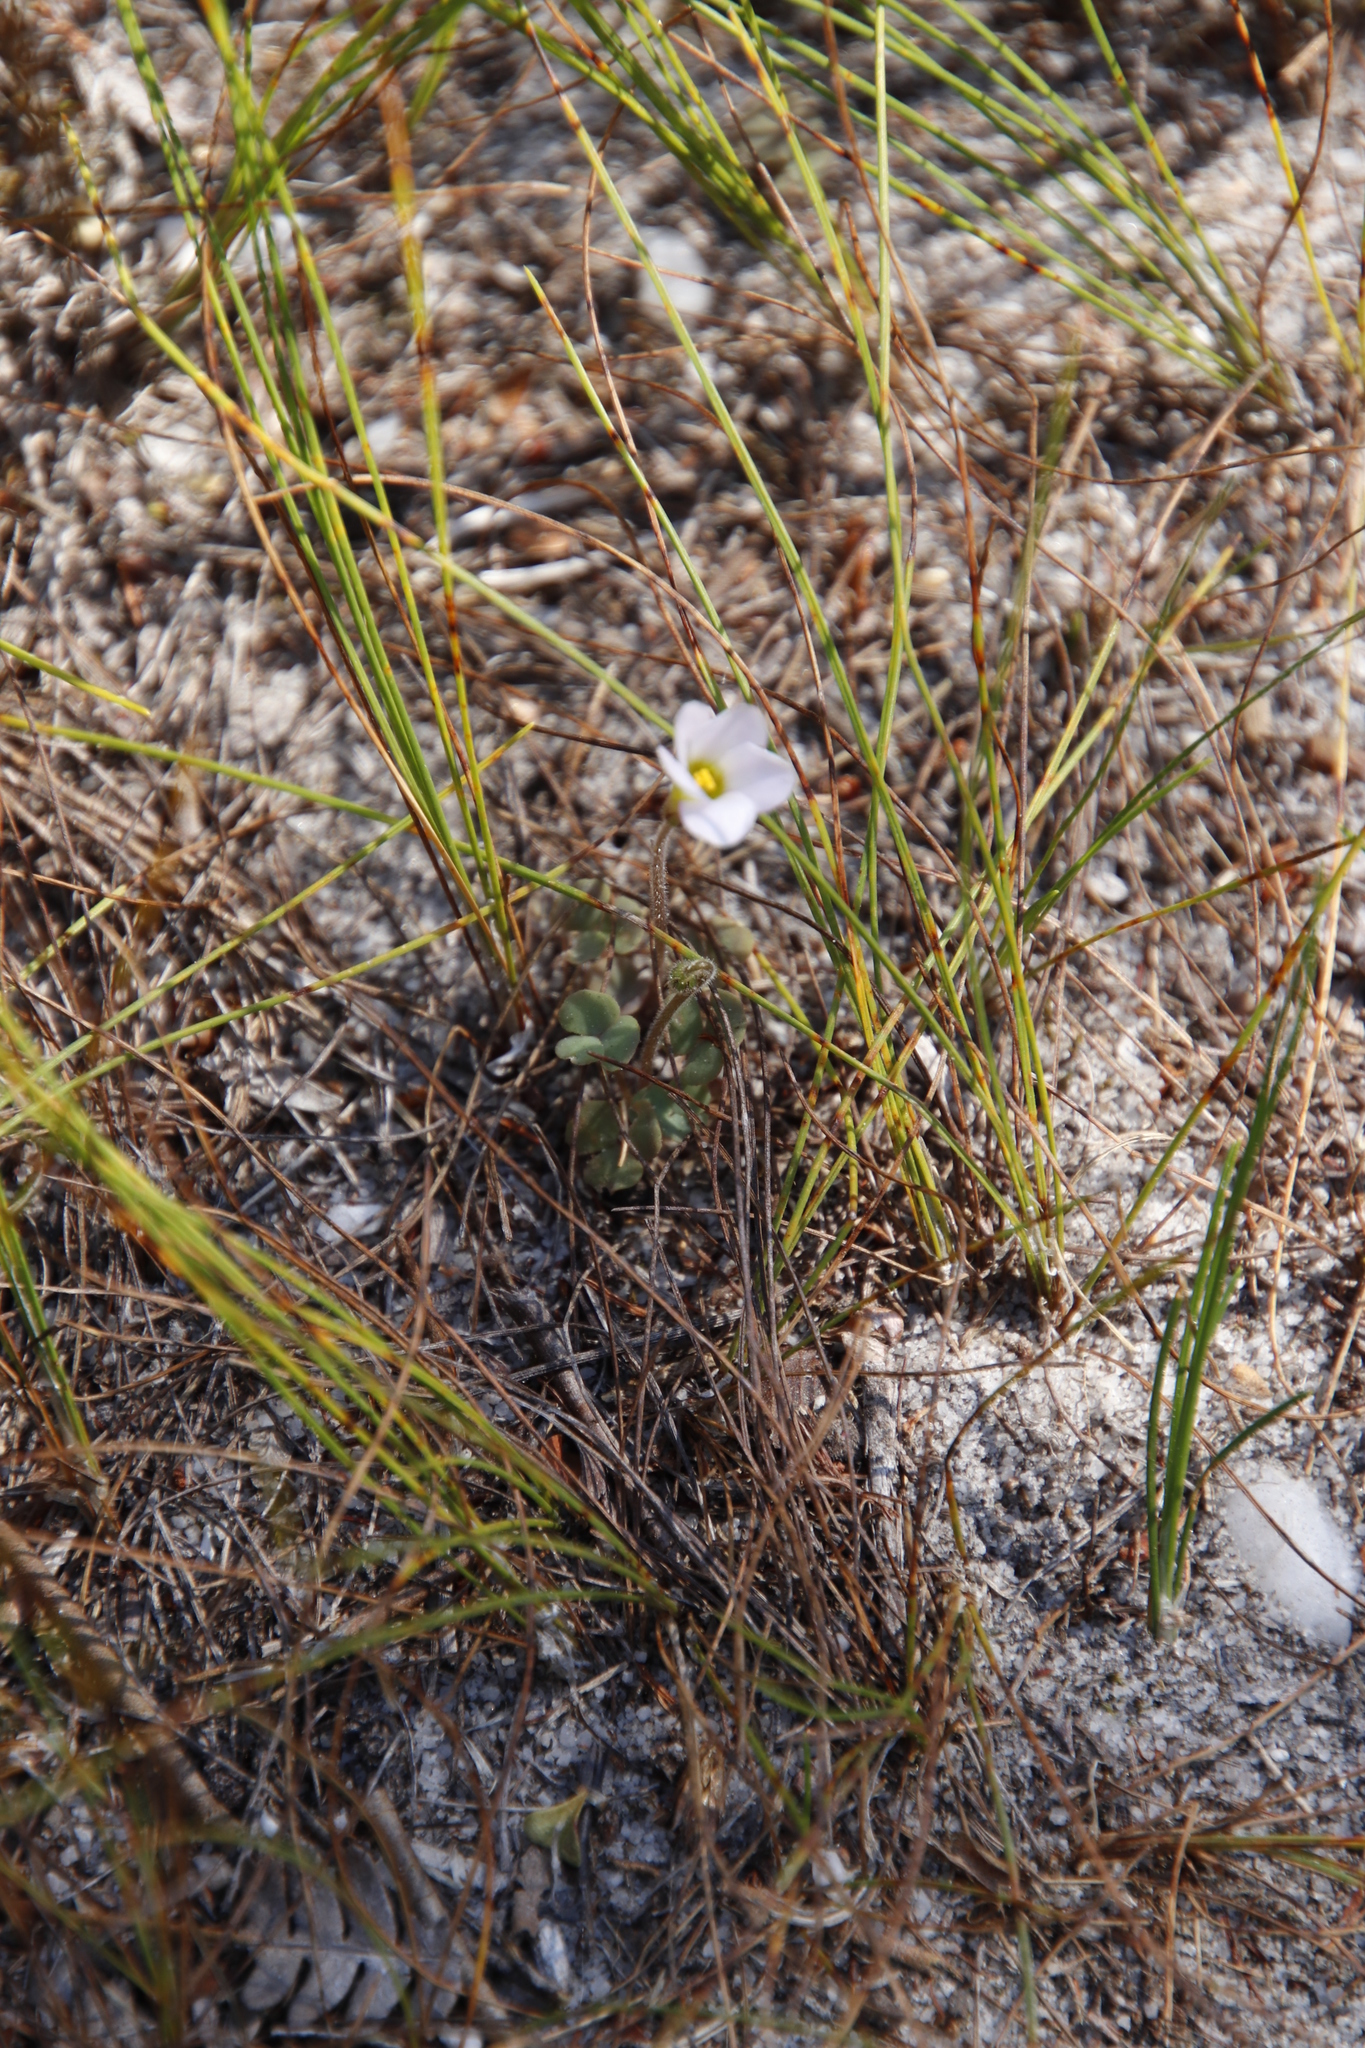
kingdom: Plantae
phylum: Tracheophyta
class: Magnoliopsida
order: Oxalidales
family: Oxalidaceae
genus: Oxalis
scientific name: Oxalis punctata
